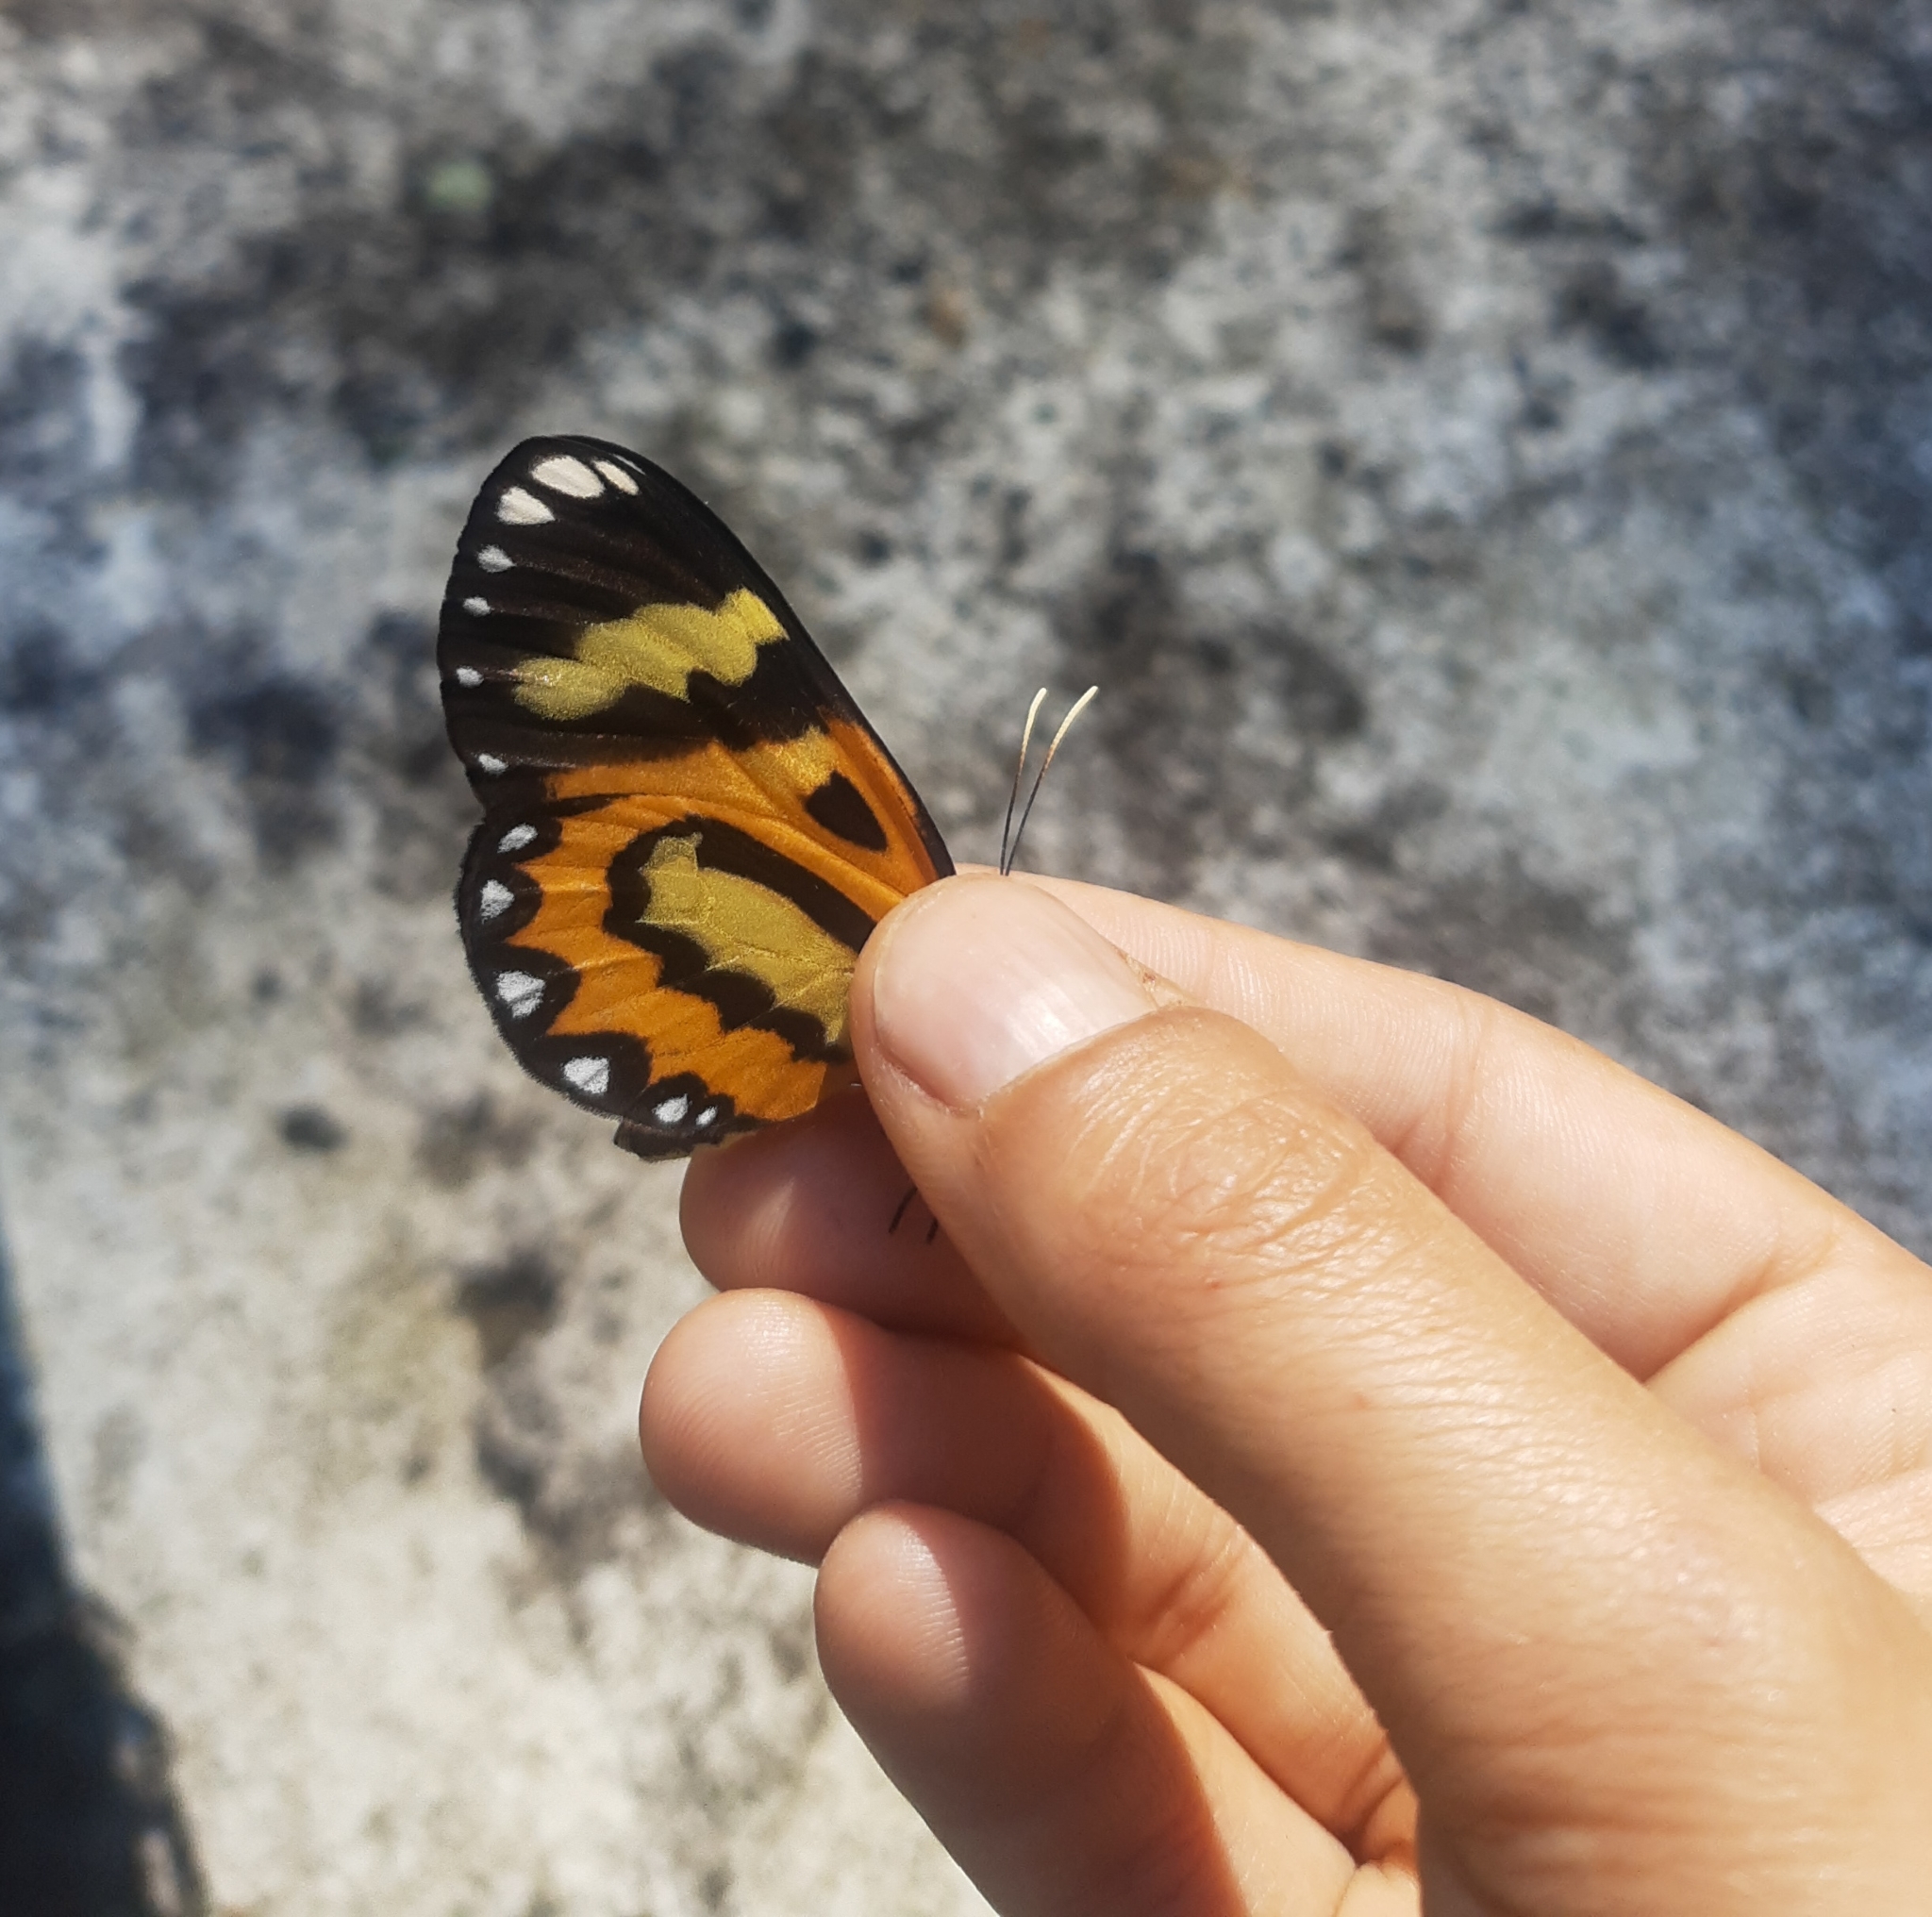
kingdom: Animalia
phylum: Arthropoda
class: Insecta
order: Lepidoptera
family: Nymphalidae
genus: Placidina
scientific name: Placidina euryanassa
